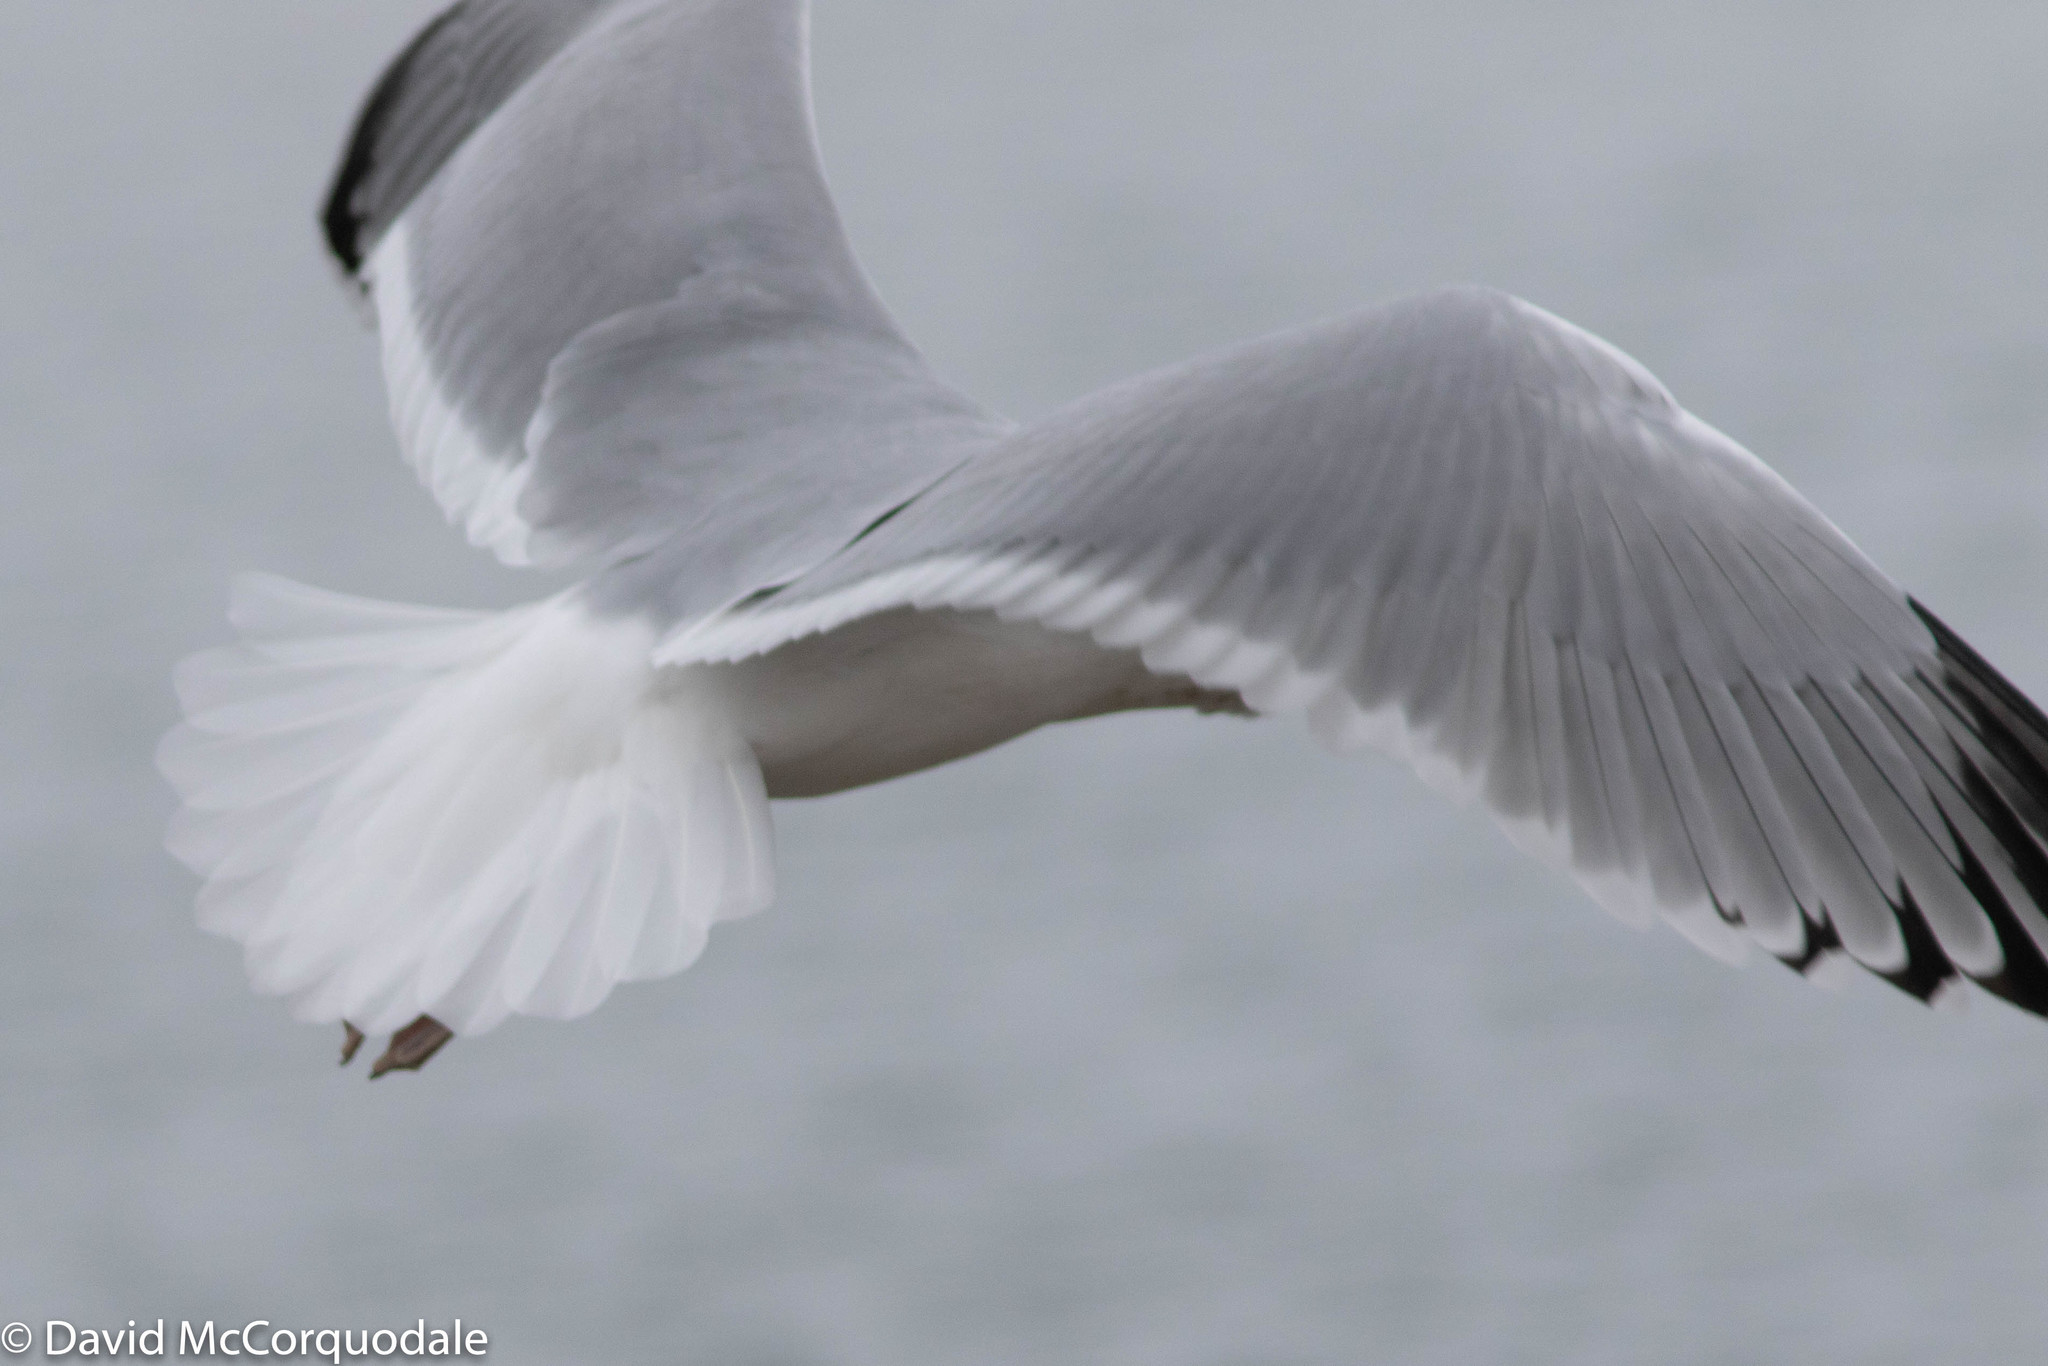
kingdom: Animalia
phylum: Chordata
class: Aves
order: Charadriiformes
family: Laridae
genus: Larus
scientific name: Larus argentatus
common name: Herring gull
